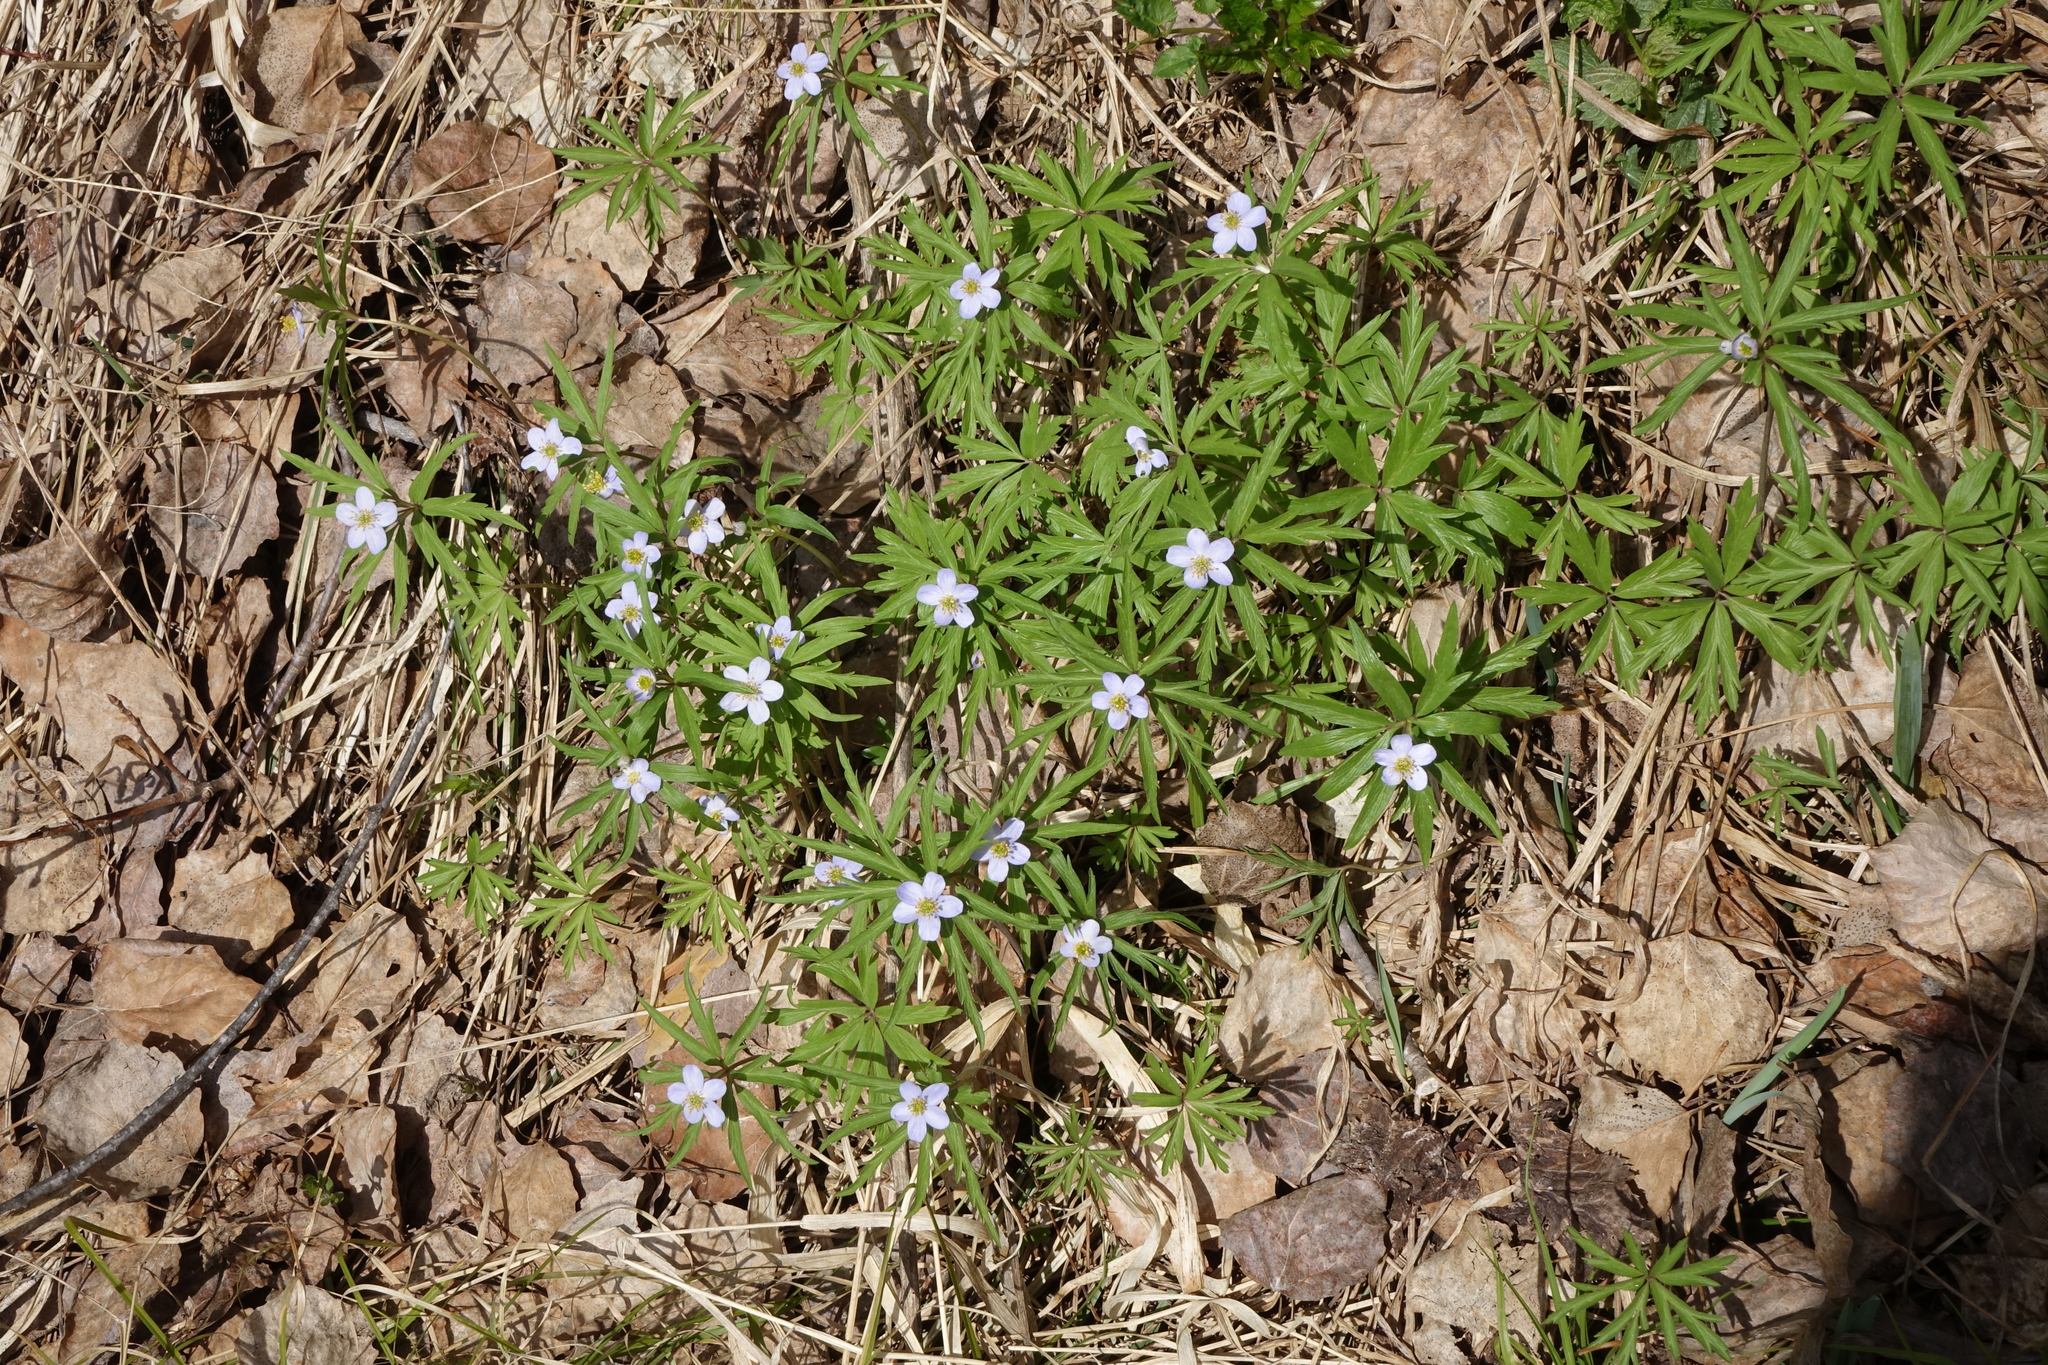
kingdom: Plantae
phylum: Tracheophyta
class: Magnoliopsida
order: Ranunculales
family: Ranunculaceae
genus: Anemone
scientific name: Anemone caerulea
